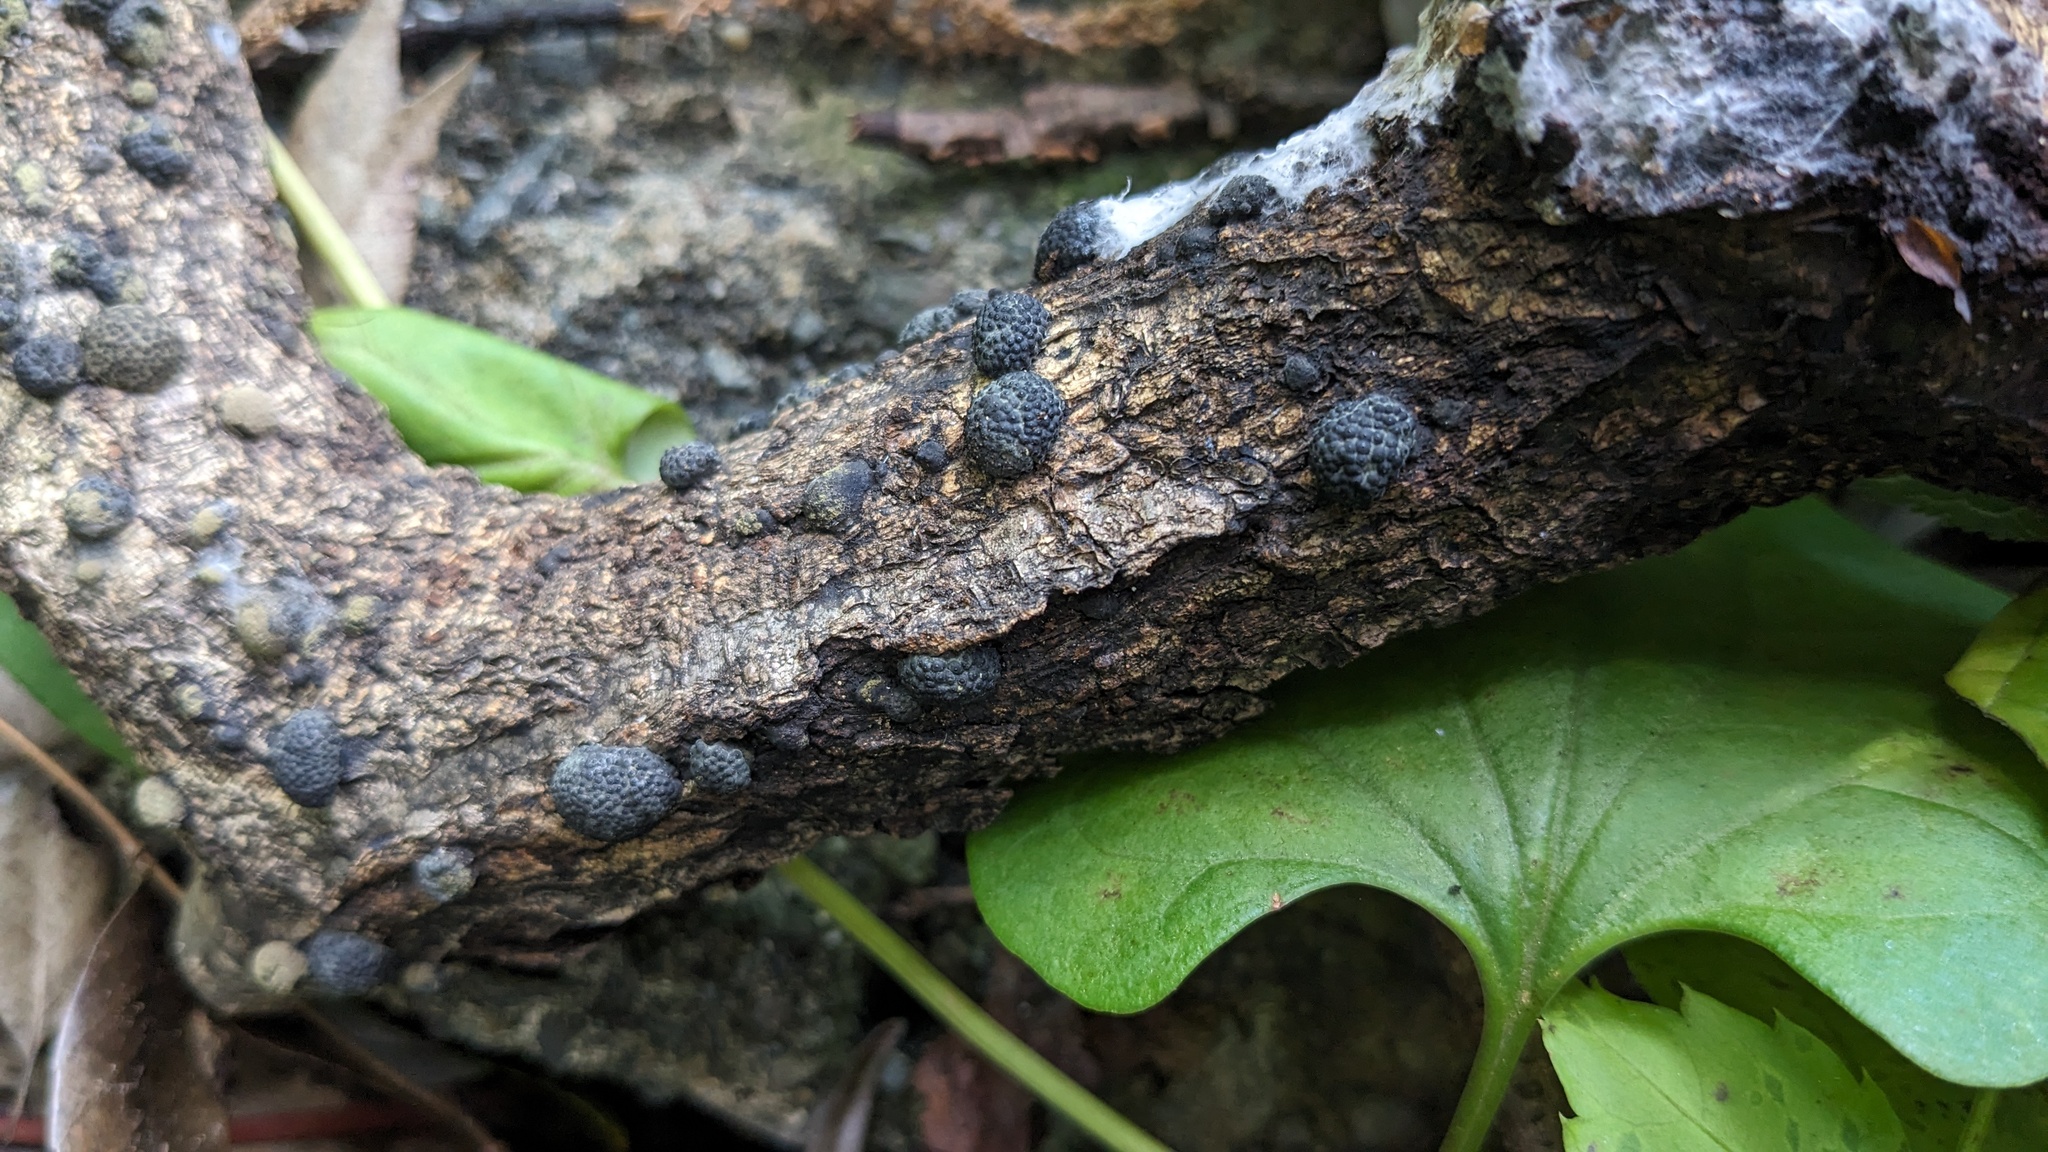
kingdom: Fungi
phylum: Ascomycota
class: Sordariomycetes
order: Xylariales
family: Hypoxylaceae
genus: Annulohypoxylon
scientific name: Annulohypoxylon truncatum
